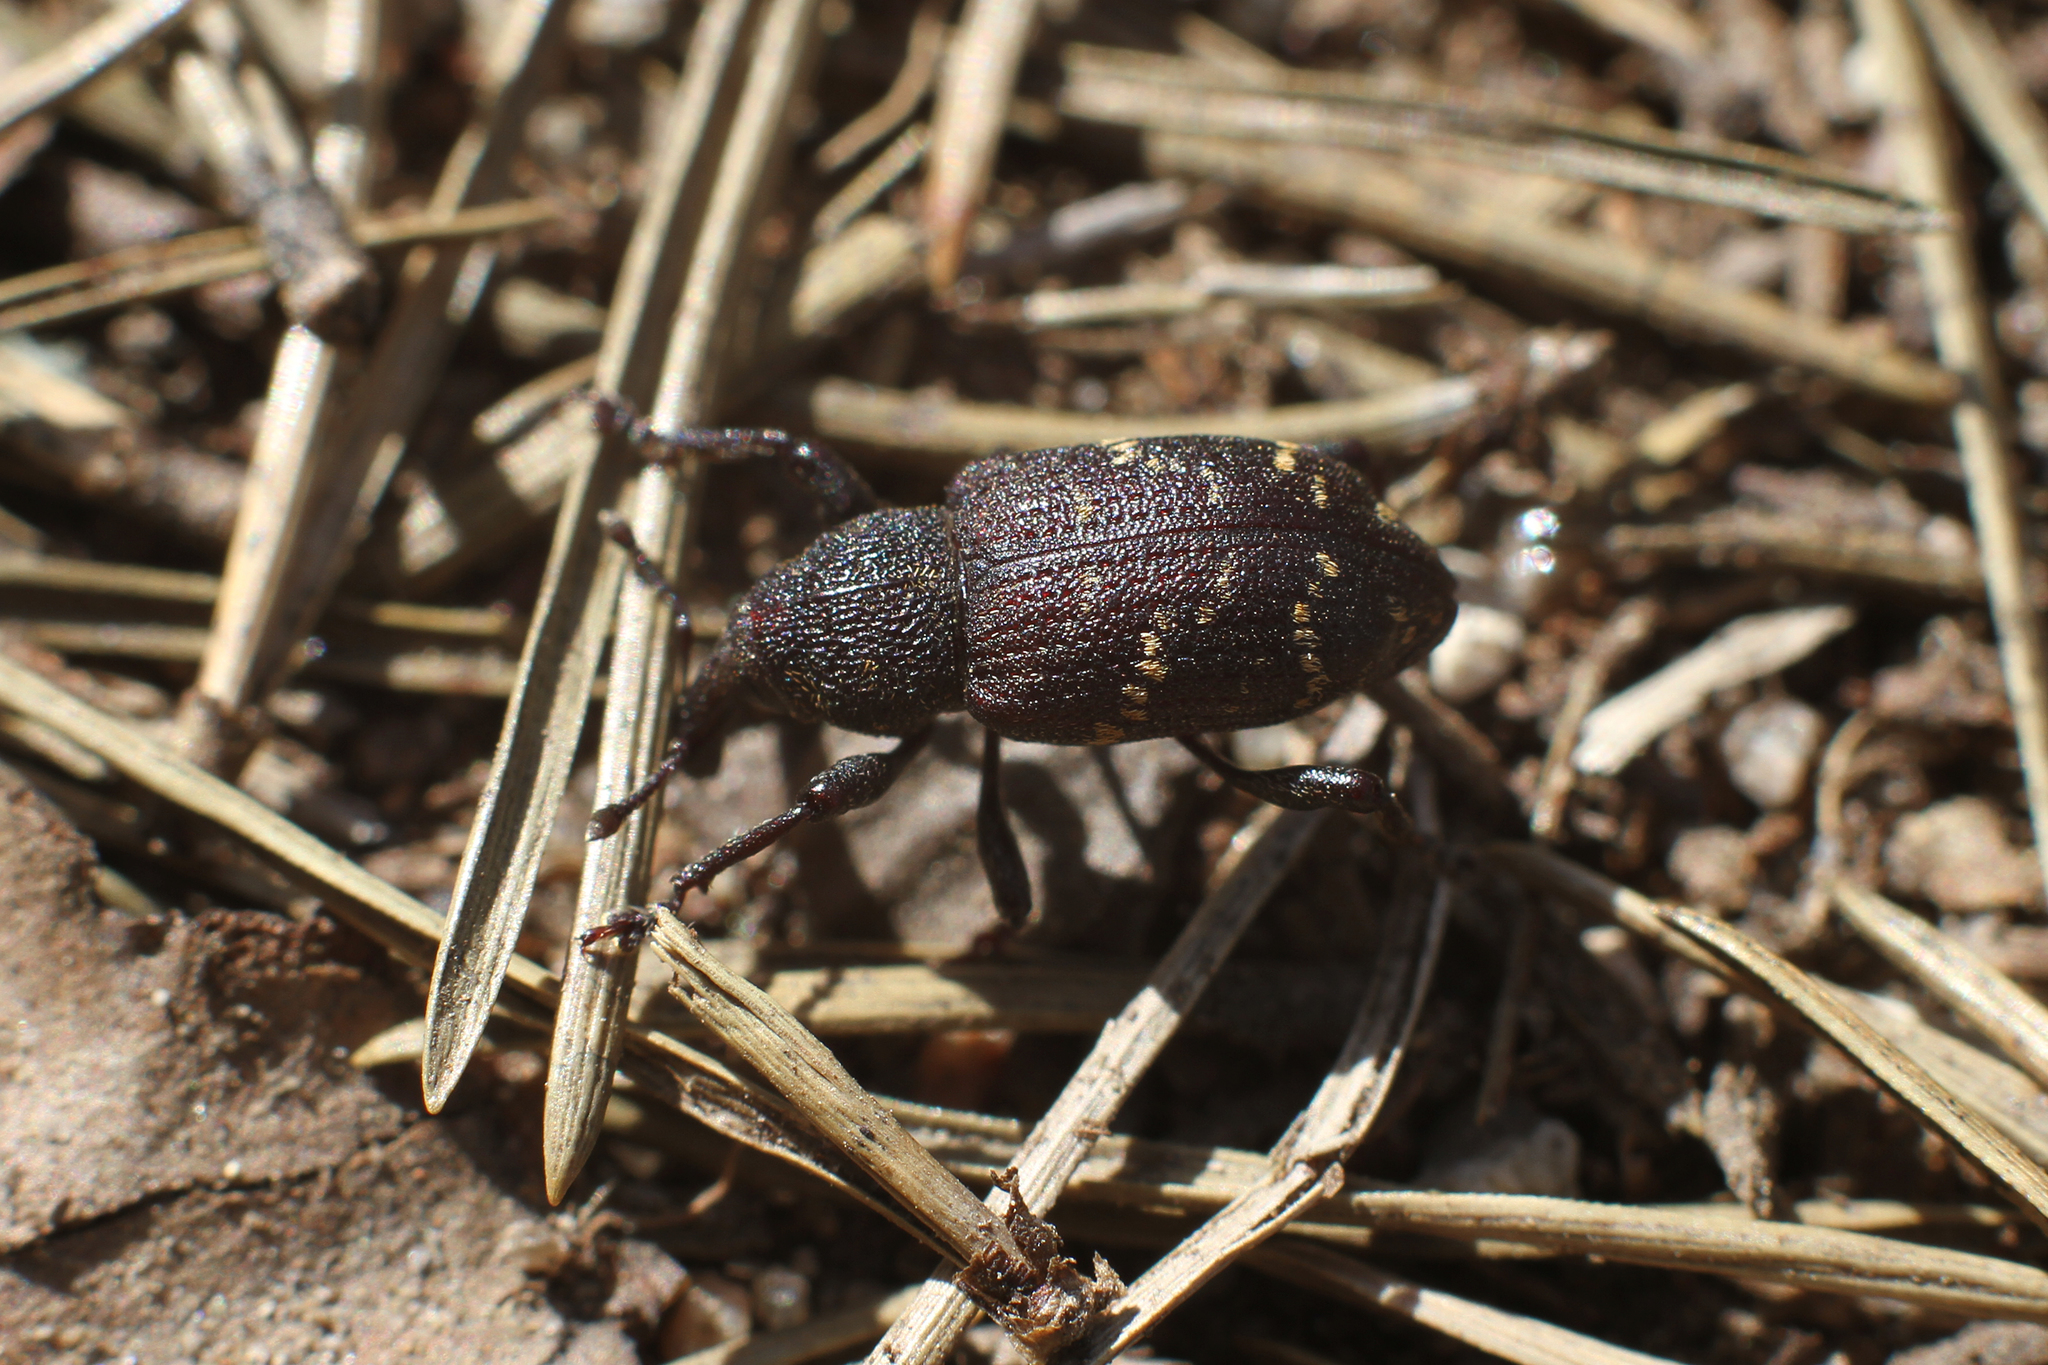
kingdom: Animalia
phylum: Arthropoda
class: Insecta
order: Coleoptera
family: Curculionidae
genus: Hylobius
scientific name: Hylobius abietis
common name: Large pine weevil
